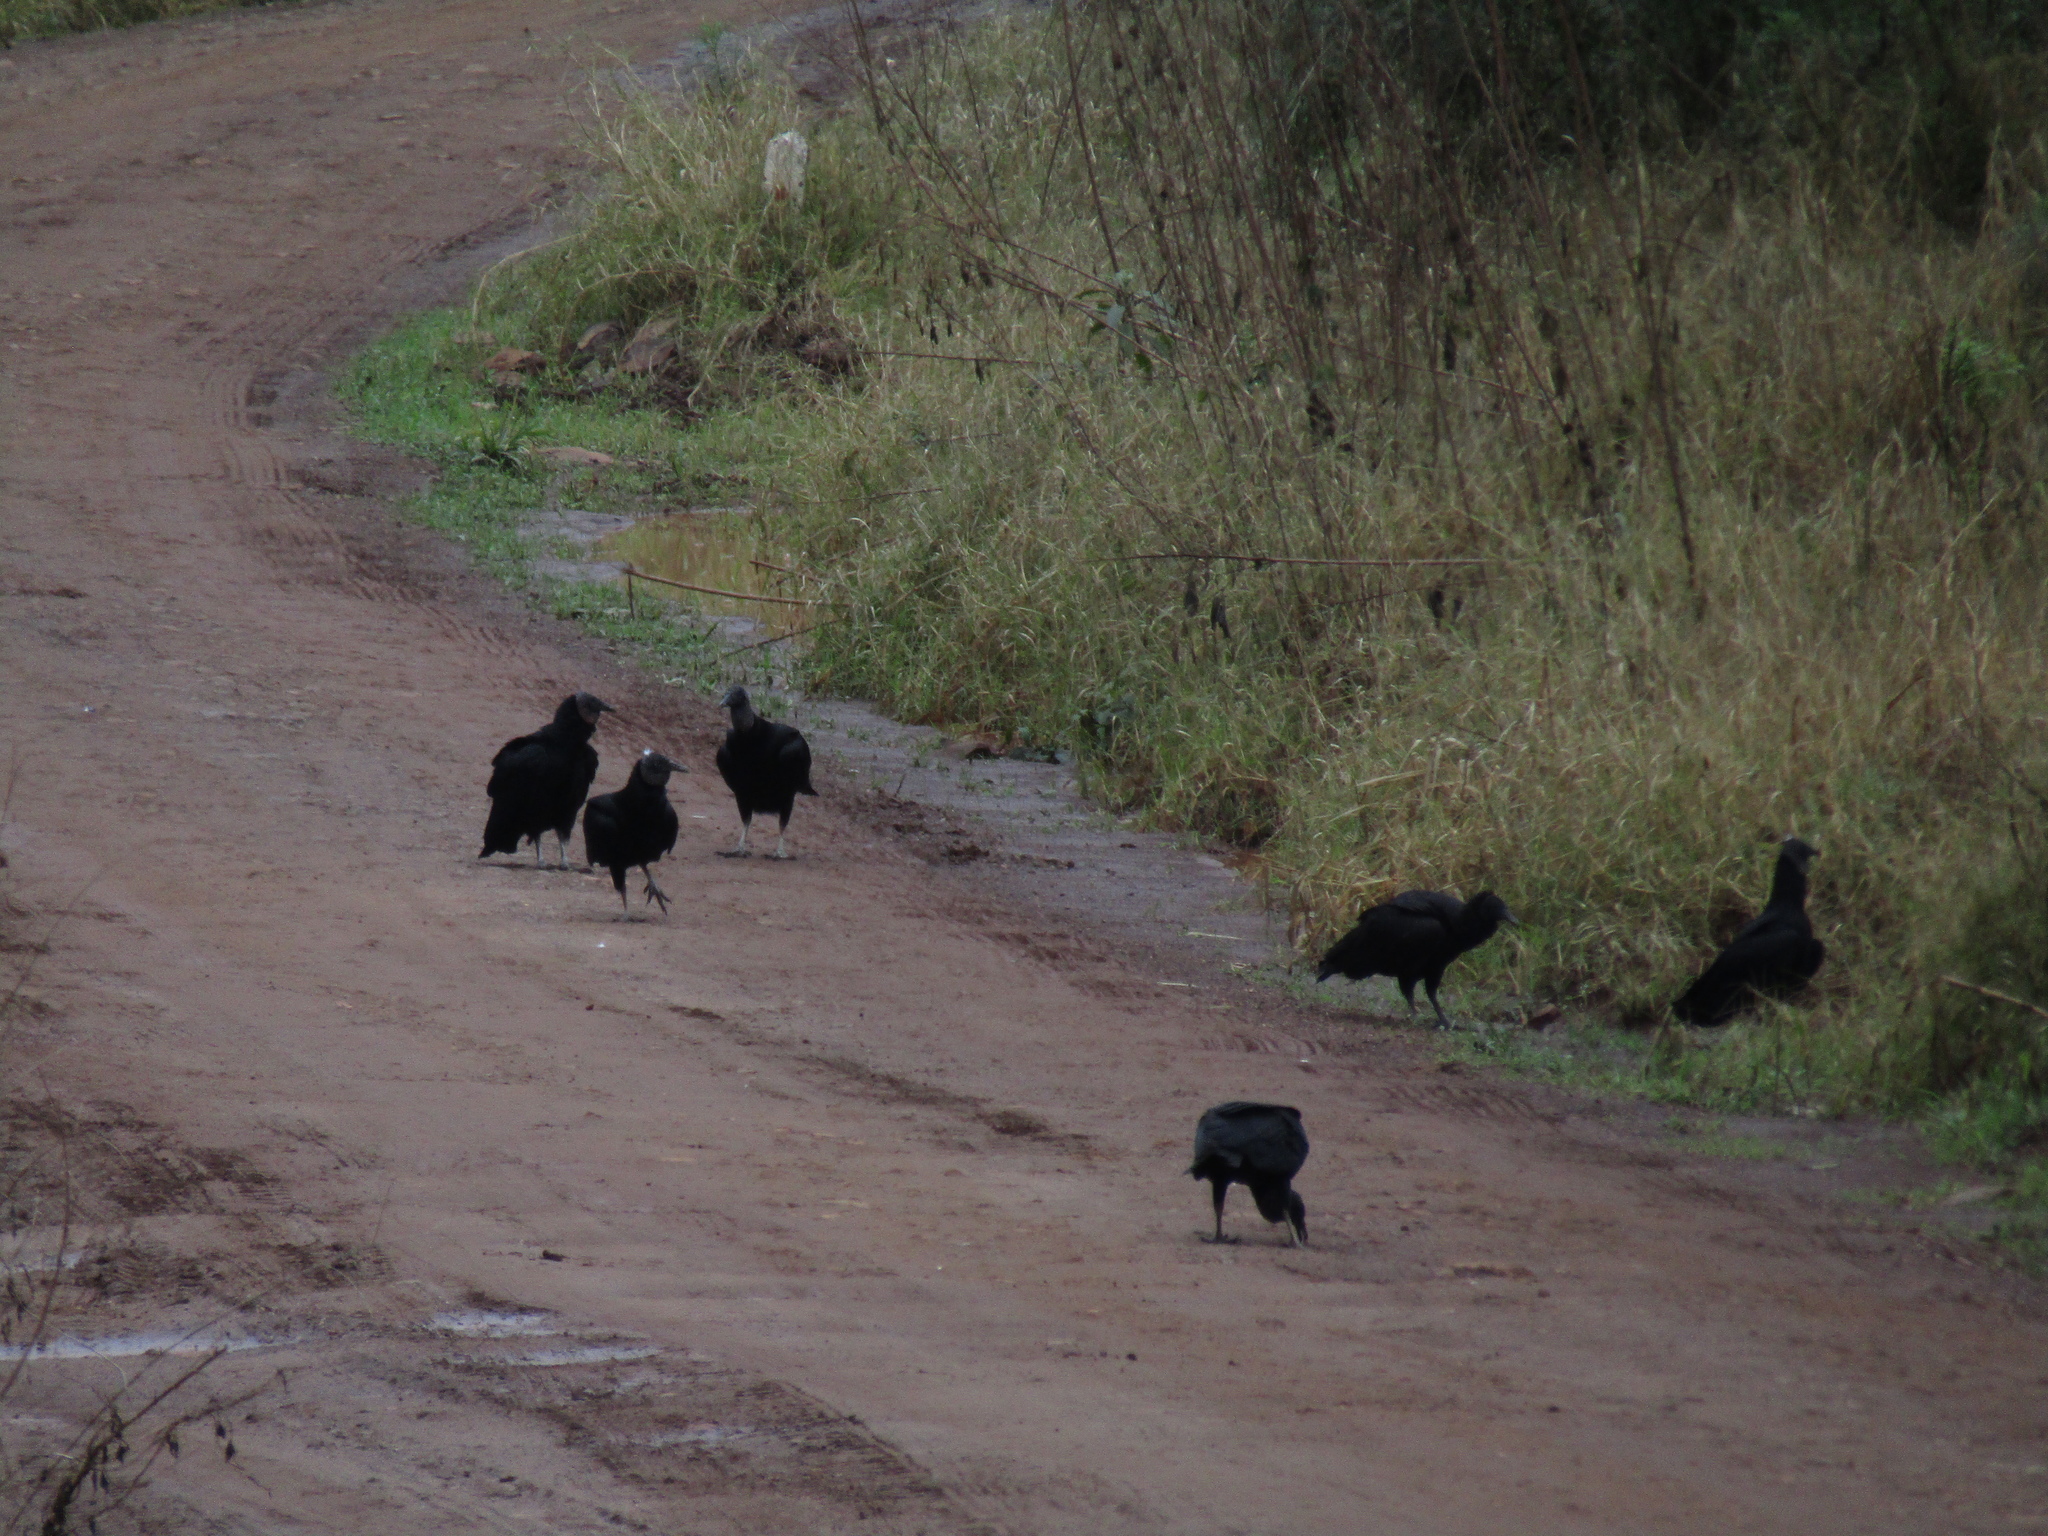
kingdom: Animalia
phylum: Chordata
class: Aves
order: Accipitriformes
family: Cathartidae
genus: Coragyps
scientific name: Coragyps atratus
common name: Black vulture
